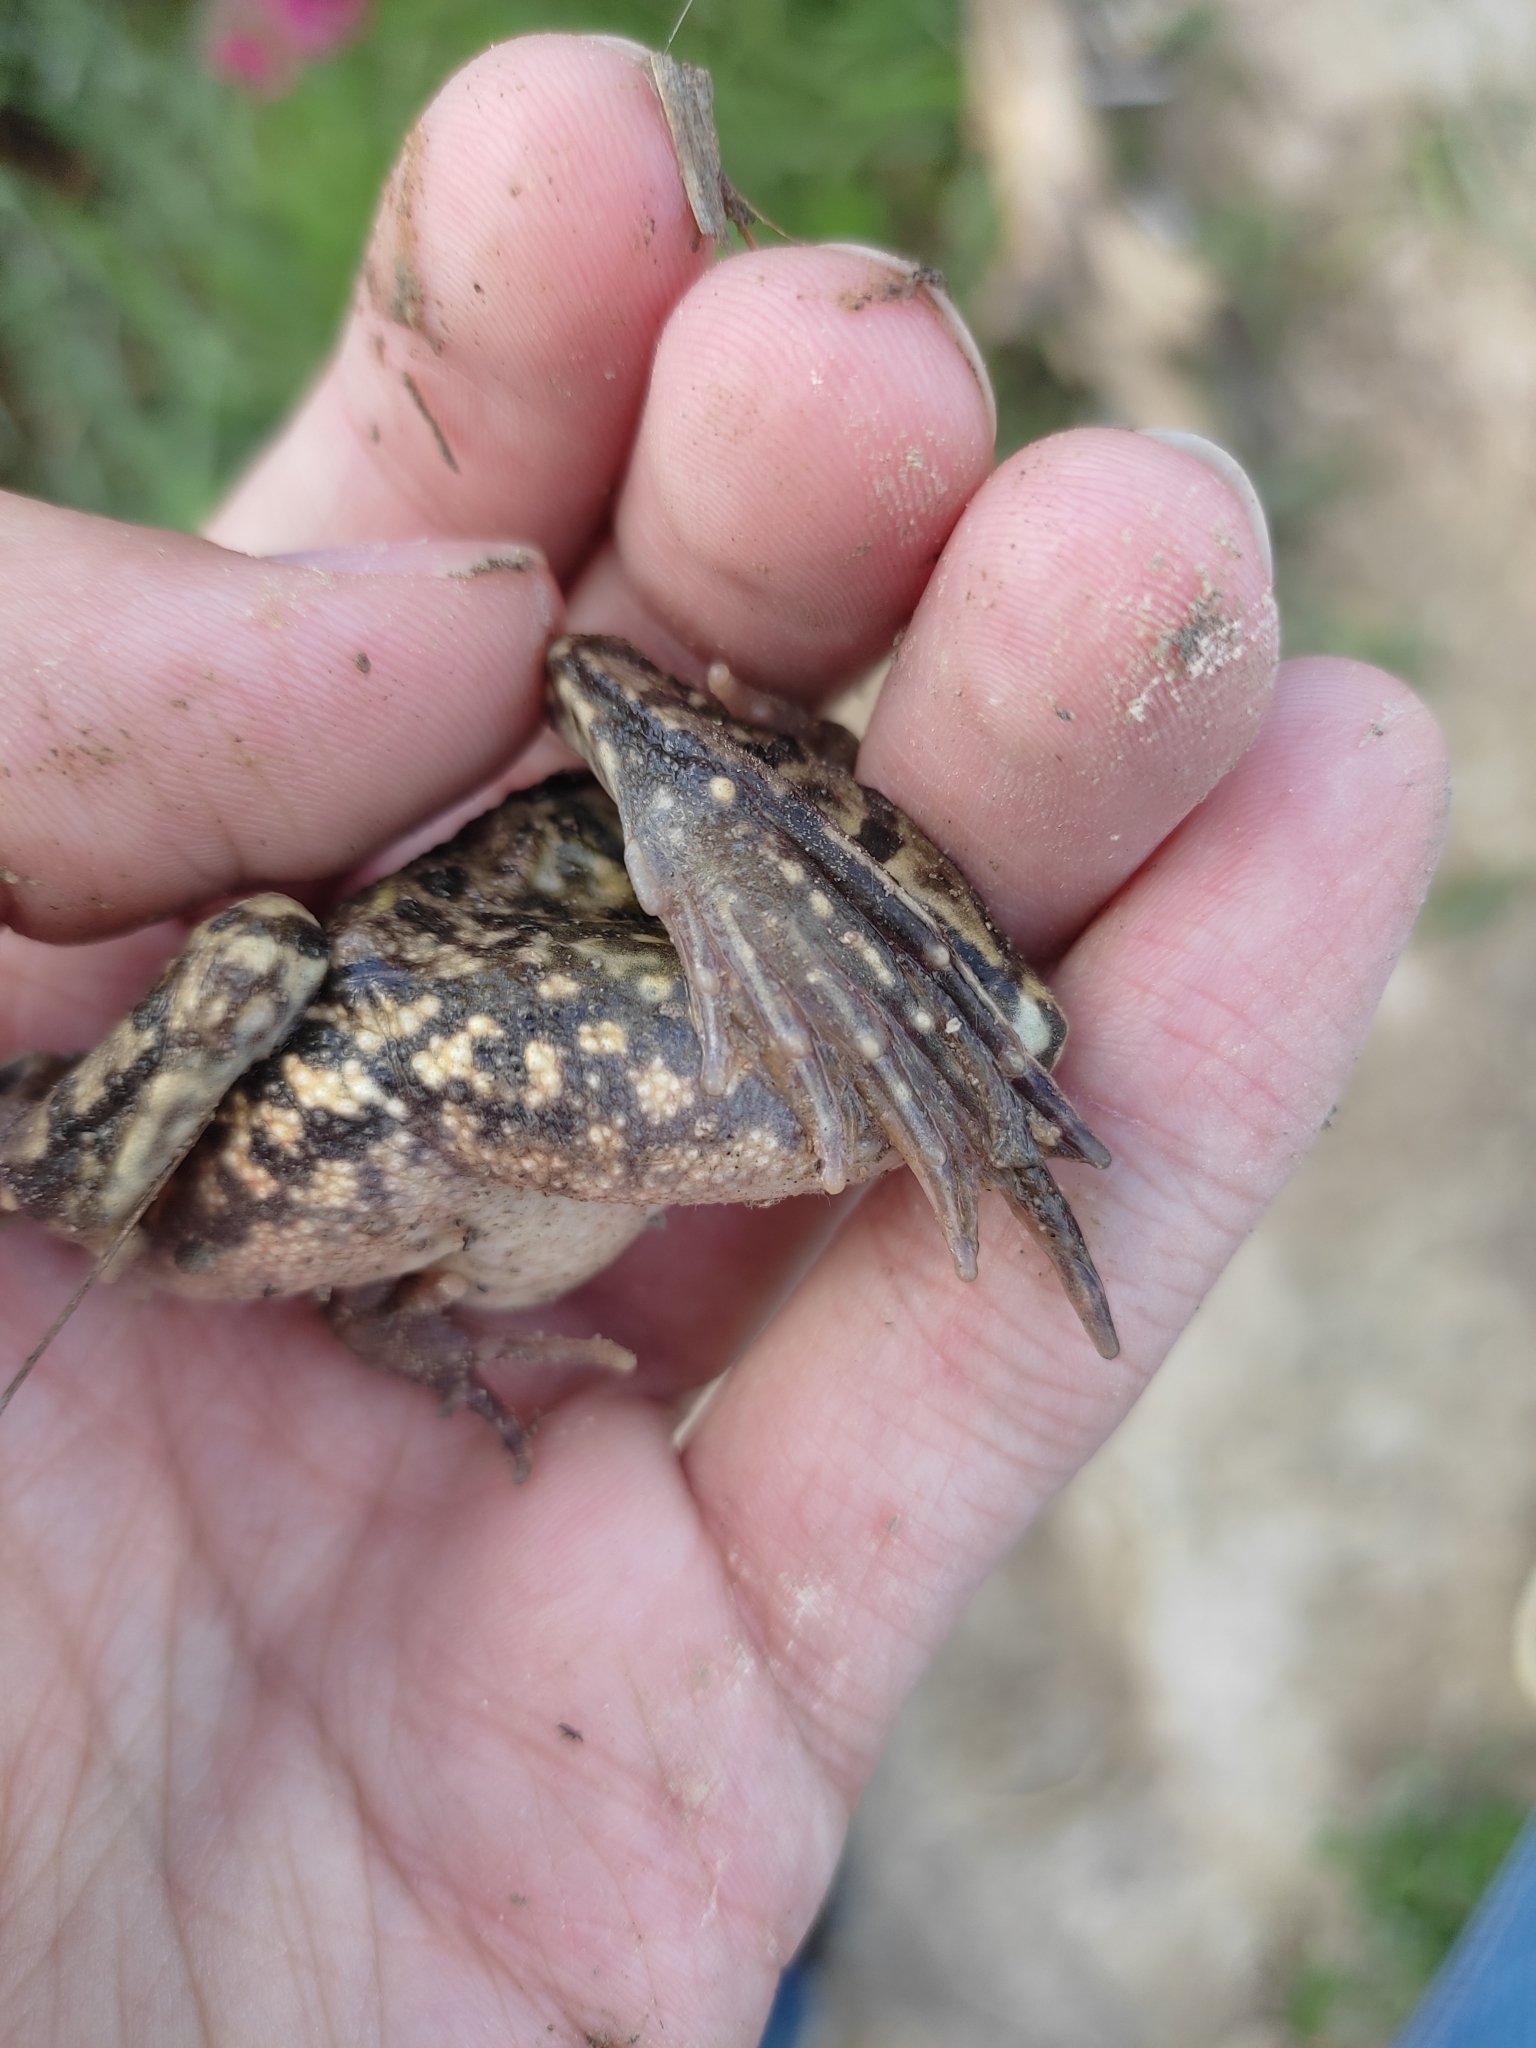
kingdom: Animalia
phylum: Chordata
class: Amphibia
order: Anura
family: Ranidae
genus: Pelophylax
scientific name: Pelophylax ridibundus
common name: Marsh frog
